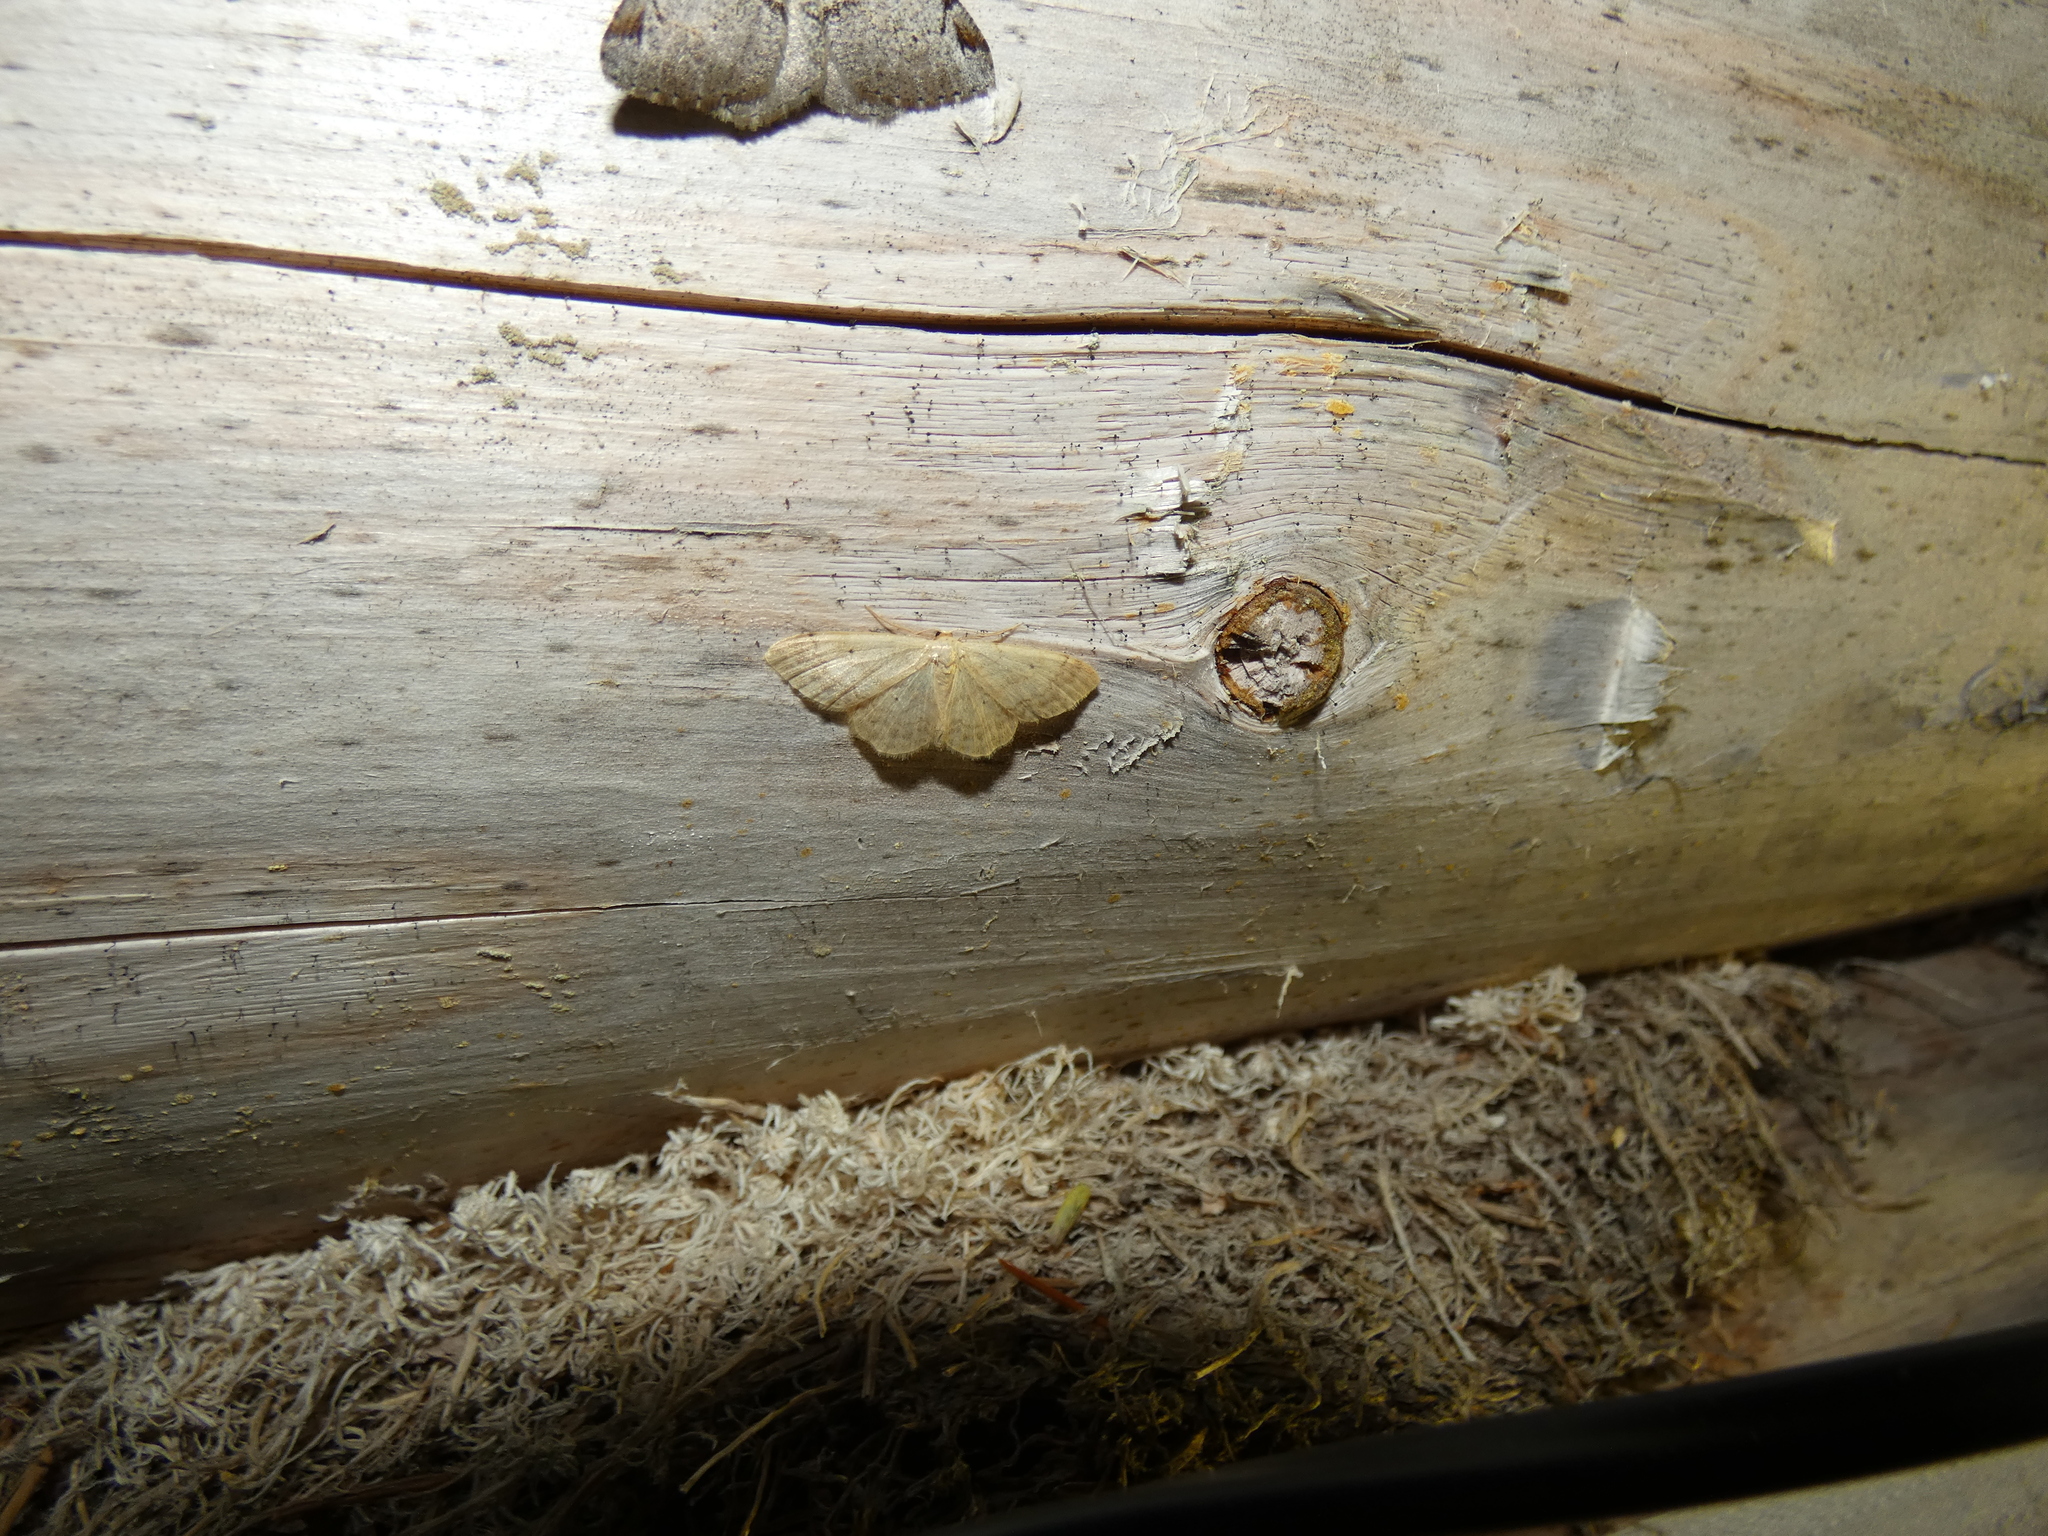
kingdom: Animalia
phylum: Arthropoda
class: Insecta
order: Lepidoptera
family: Geometridae
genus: Idaea
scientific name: Idaea biselata
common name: Small fan-footed wave
